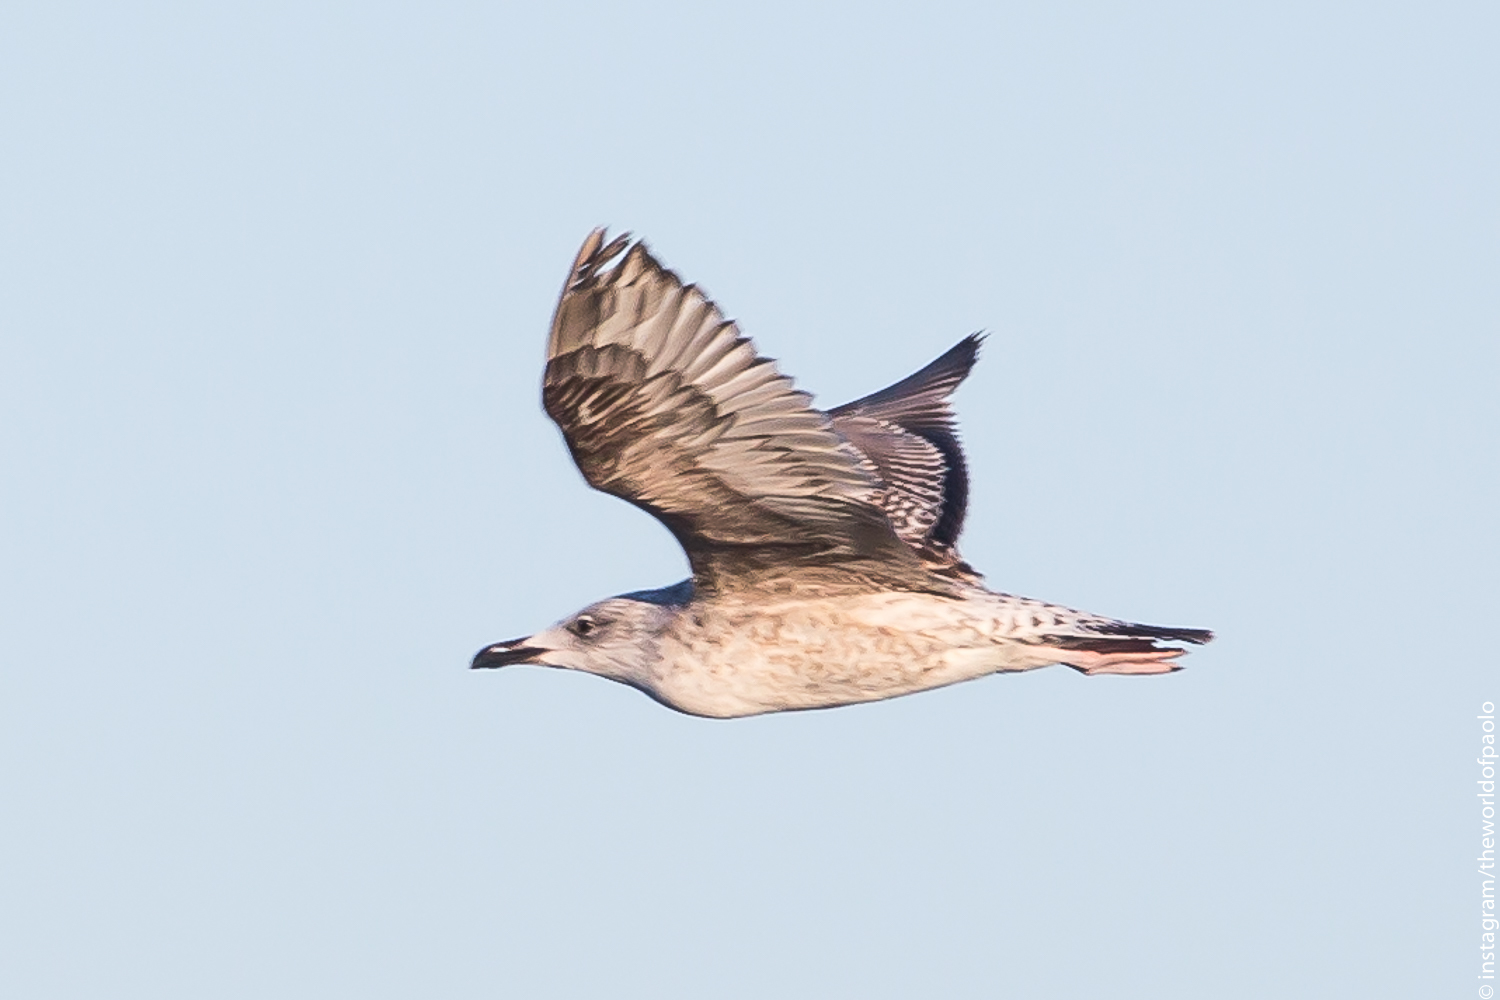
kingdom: Animalia
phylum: Chordata
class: Aves
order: Charadriiformes
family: Laridae
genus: Larus
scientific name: Larus michahellis
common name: Yellow-legged gull
